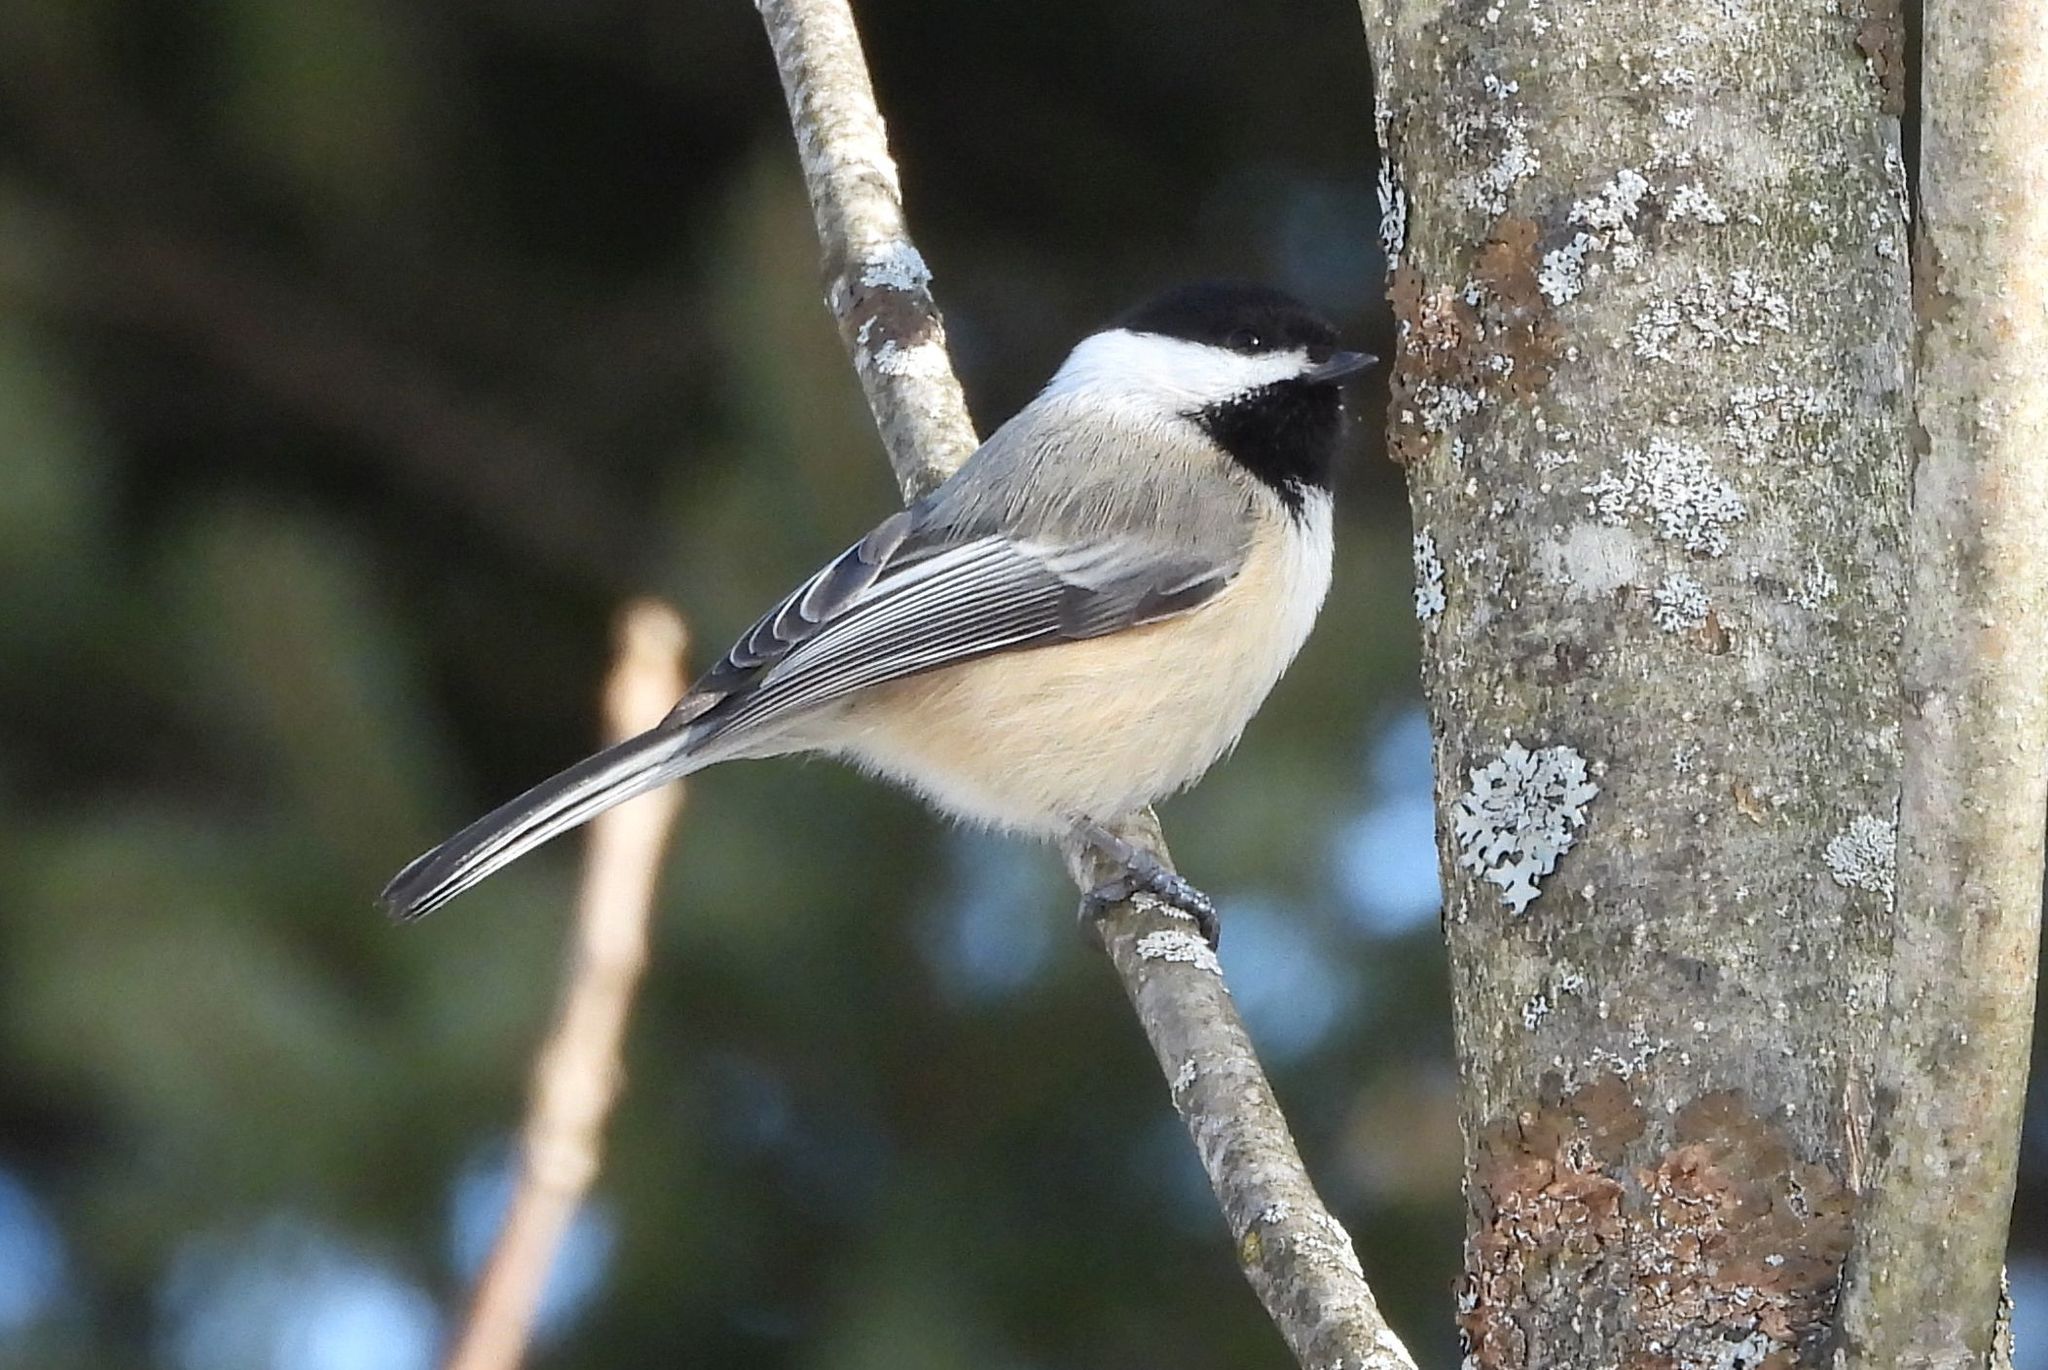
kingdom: Animalia
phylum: Chordata
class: Aves
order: Passeriformes
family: Paridae
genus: Poecile
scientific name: Poecile atricapillus
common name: Black-capped chickadee
